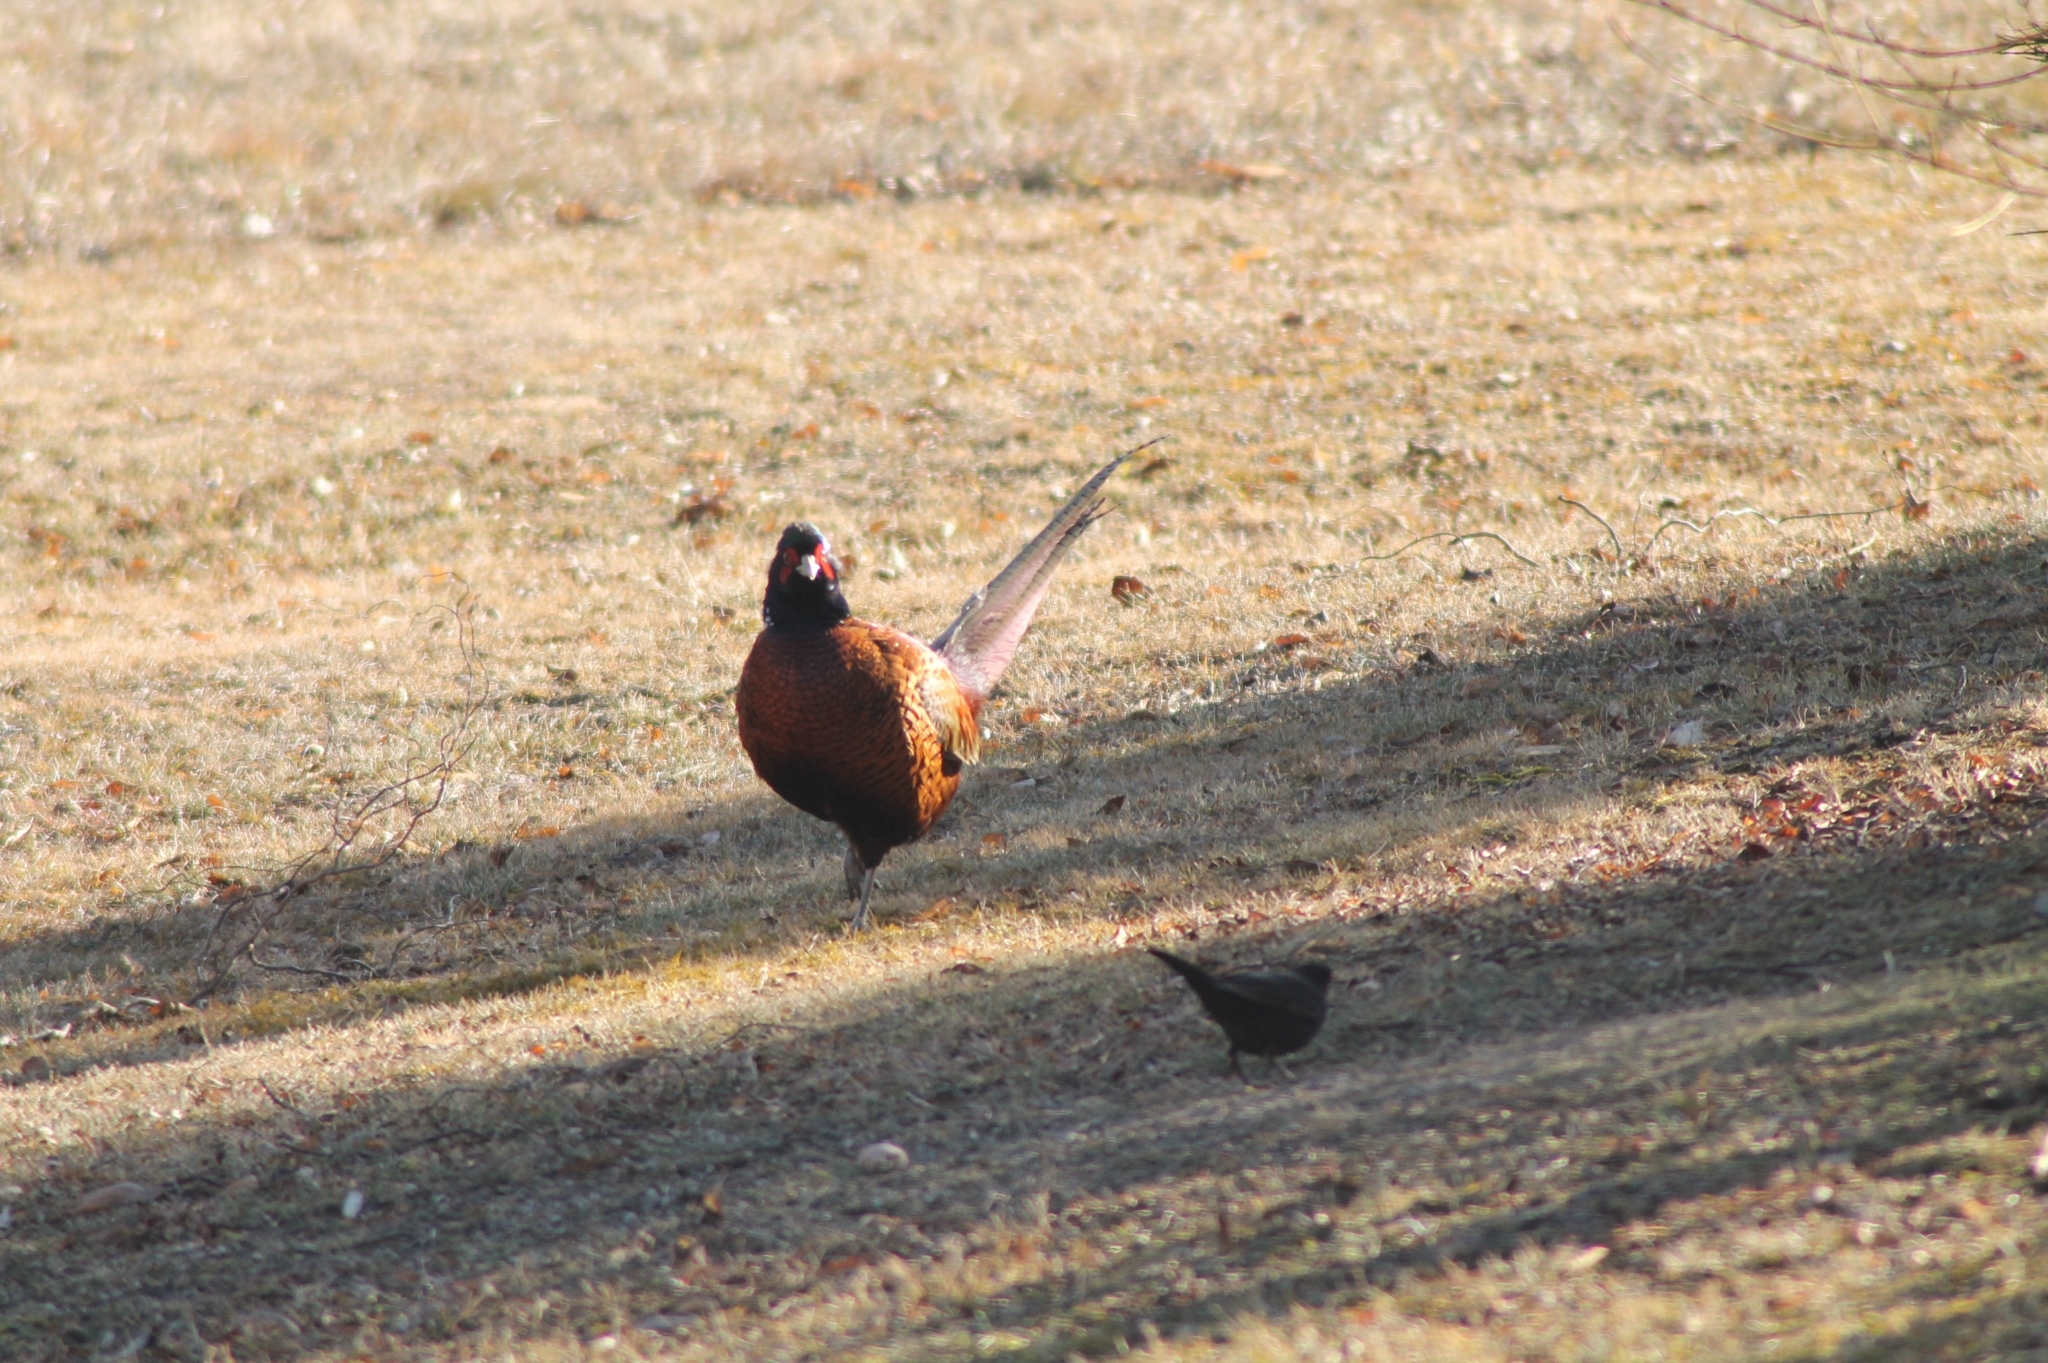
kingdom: Animalia
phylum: Chordata
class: Aves
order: Galliformes
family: Phasianidae
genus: Phasianus
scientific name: Phasianus colchicus
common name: Common pheasant
